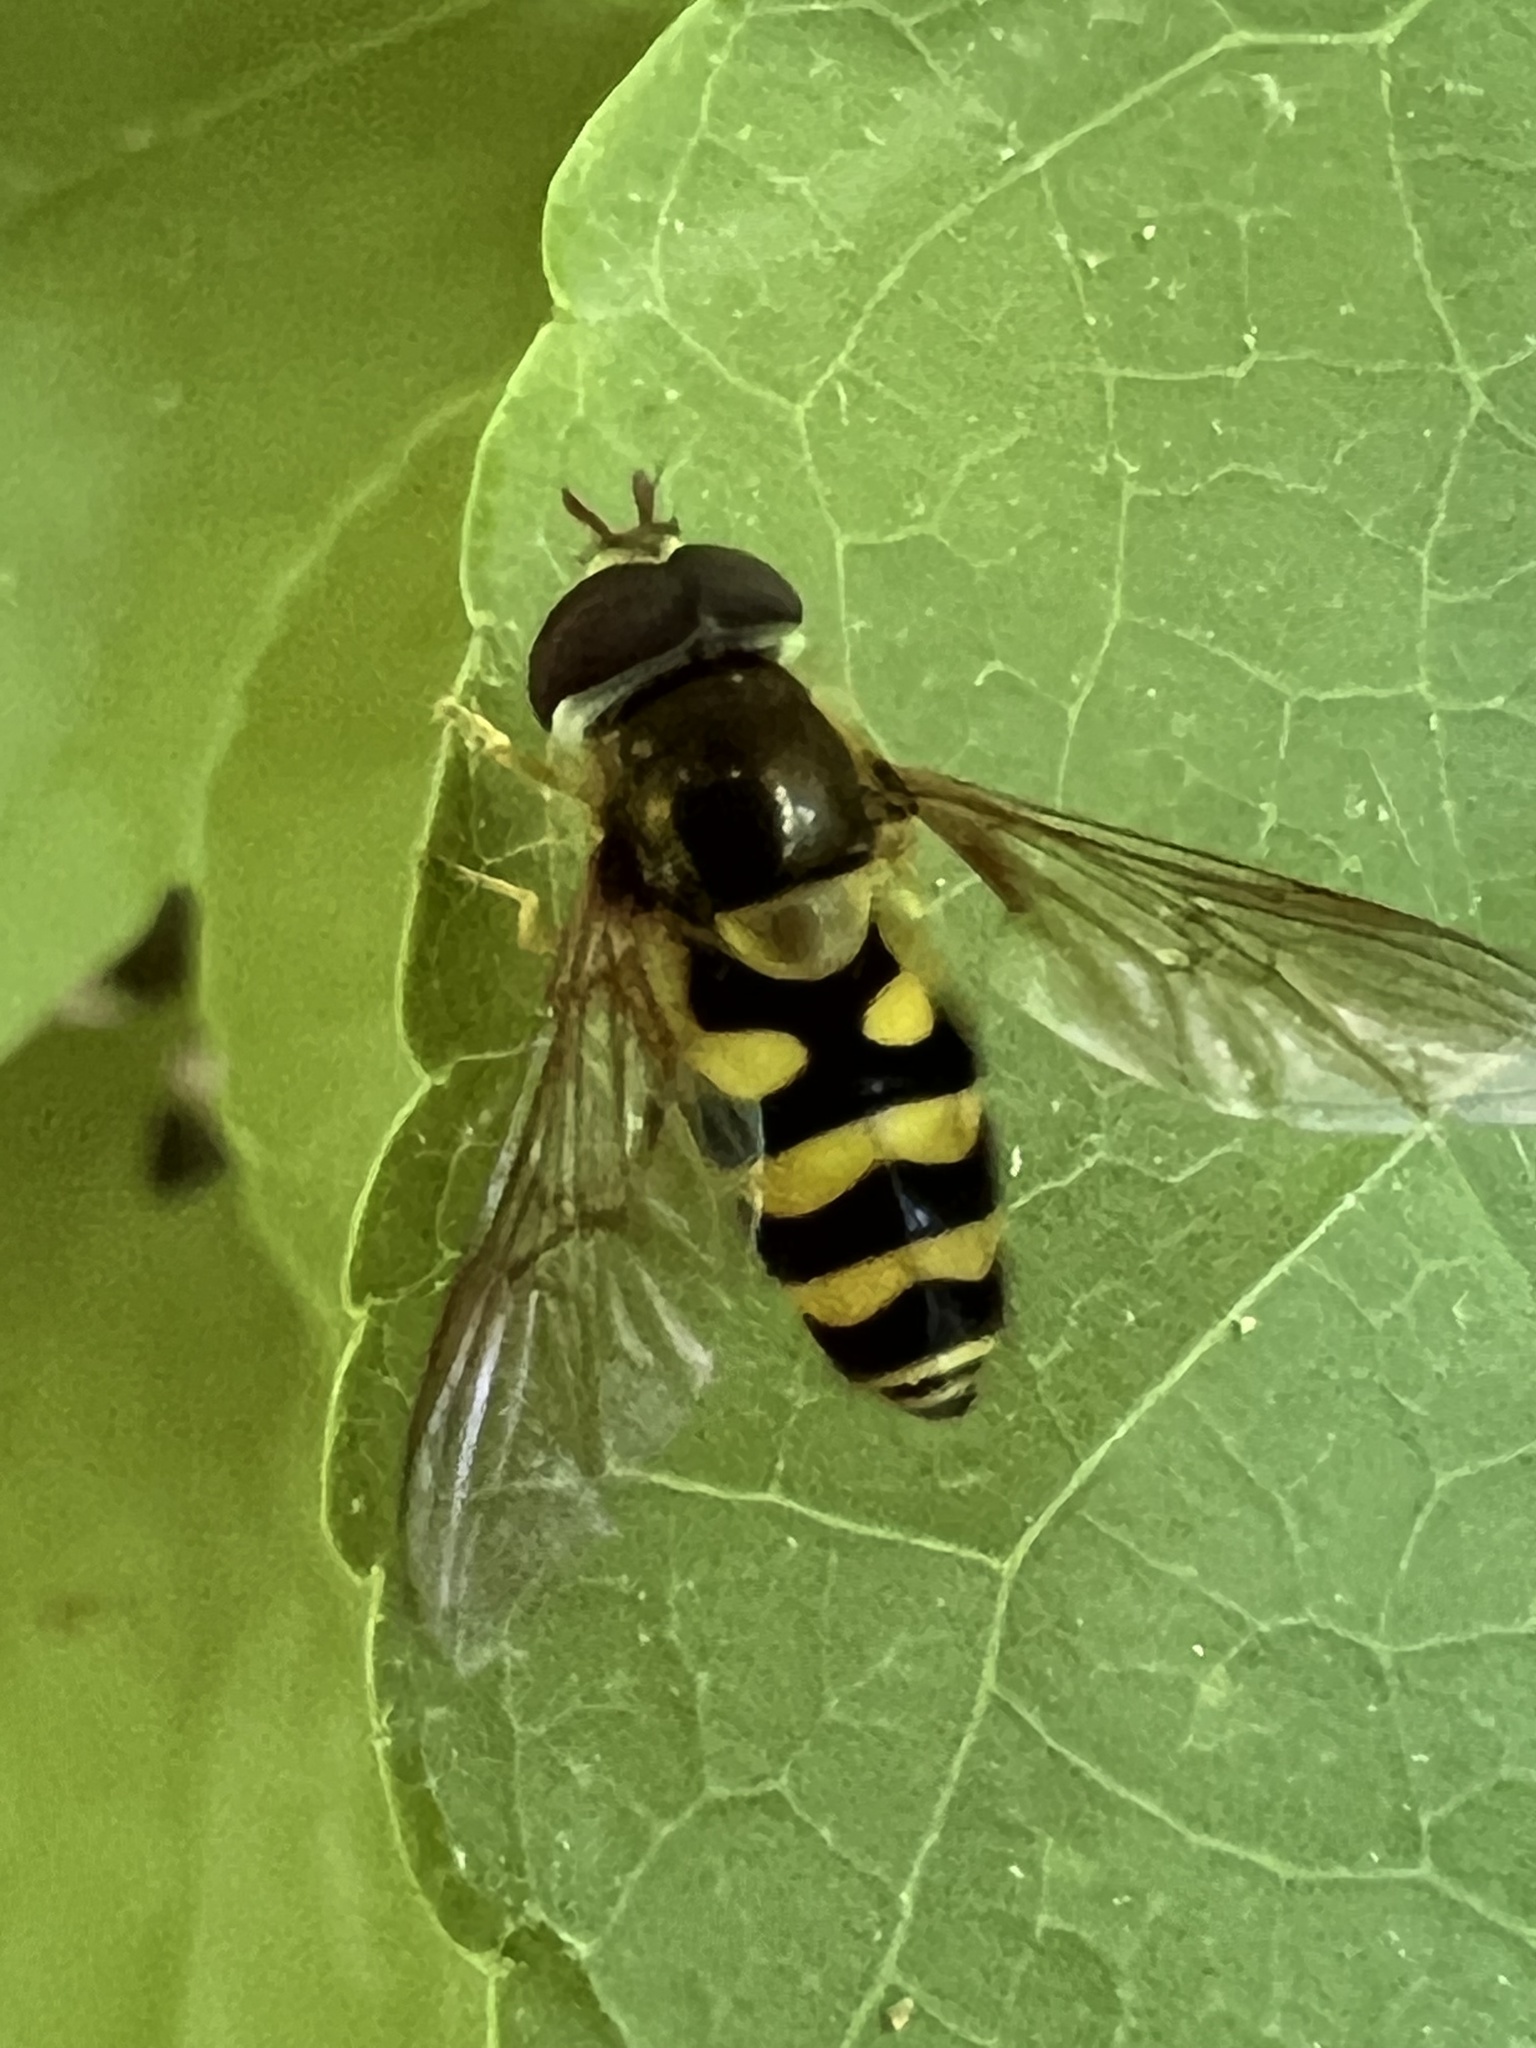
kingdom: Animalia
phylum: Arthropoda
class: Insecta
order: Diptera
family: Syrphidae
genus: Syrphus
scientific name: Syrphus
